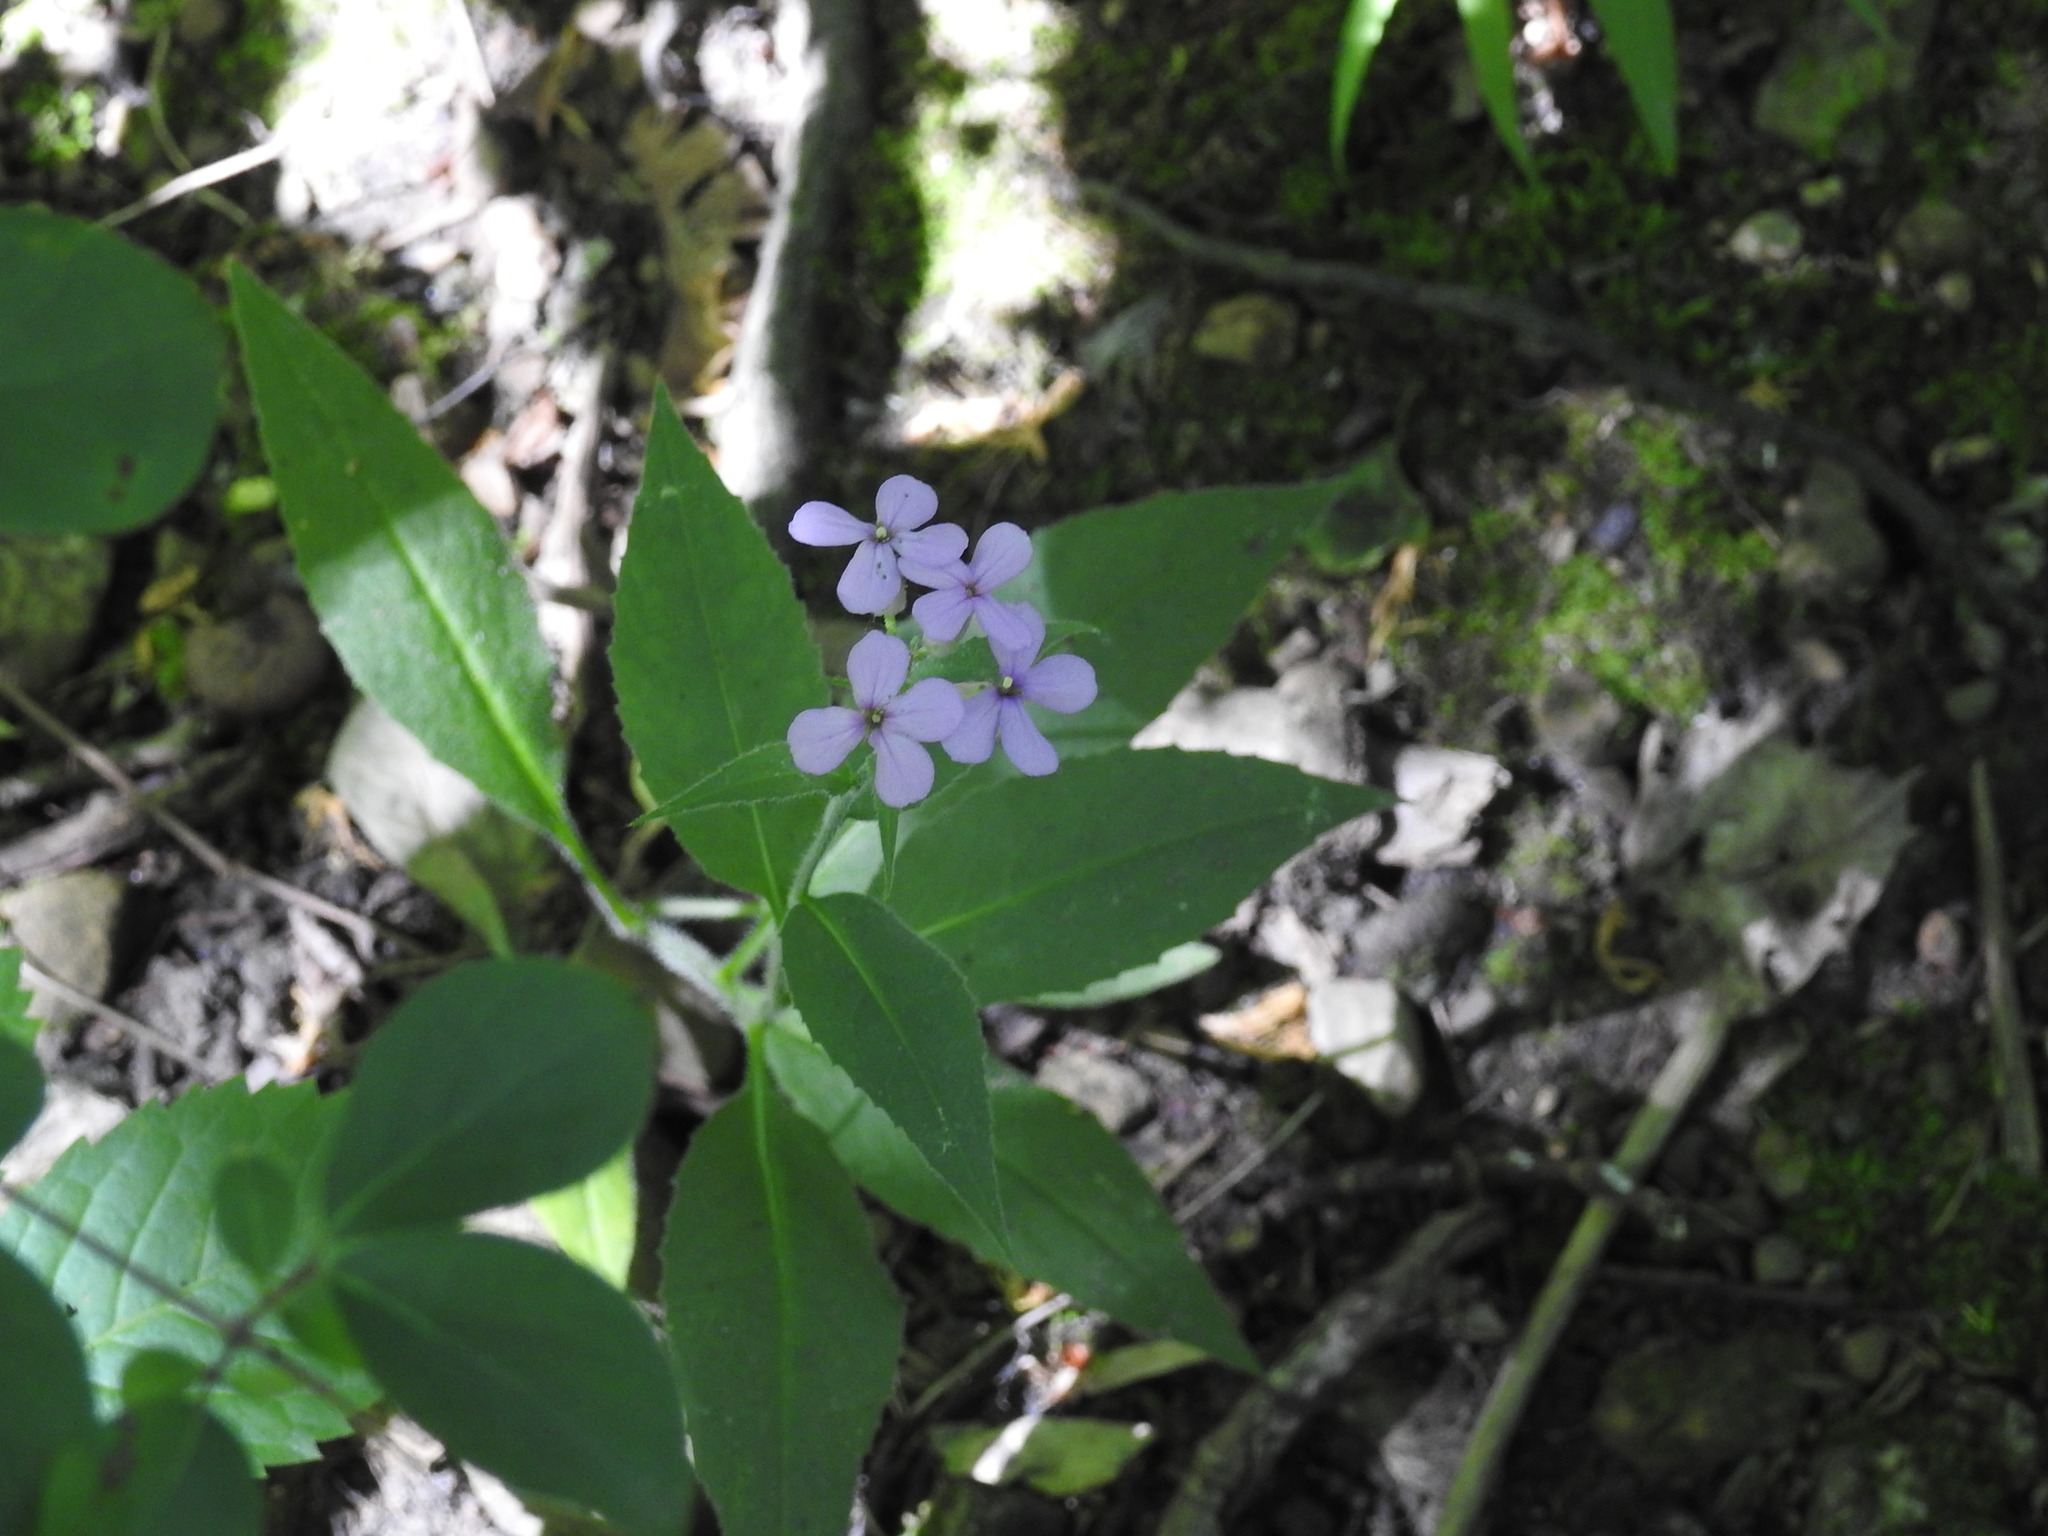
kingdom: Plantae
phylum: Tracheophyta
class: Magnoliopsida
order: Brassicales
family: Brassicaceae
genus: Hesperis
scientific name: Hesperis matronalis
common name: Dame's-violet
